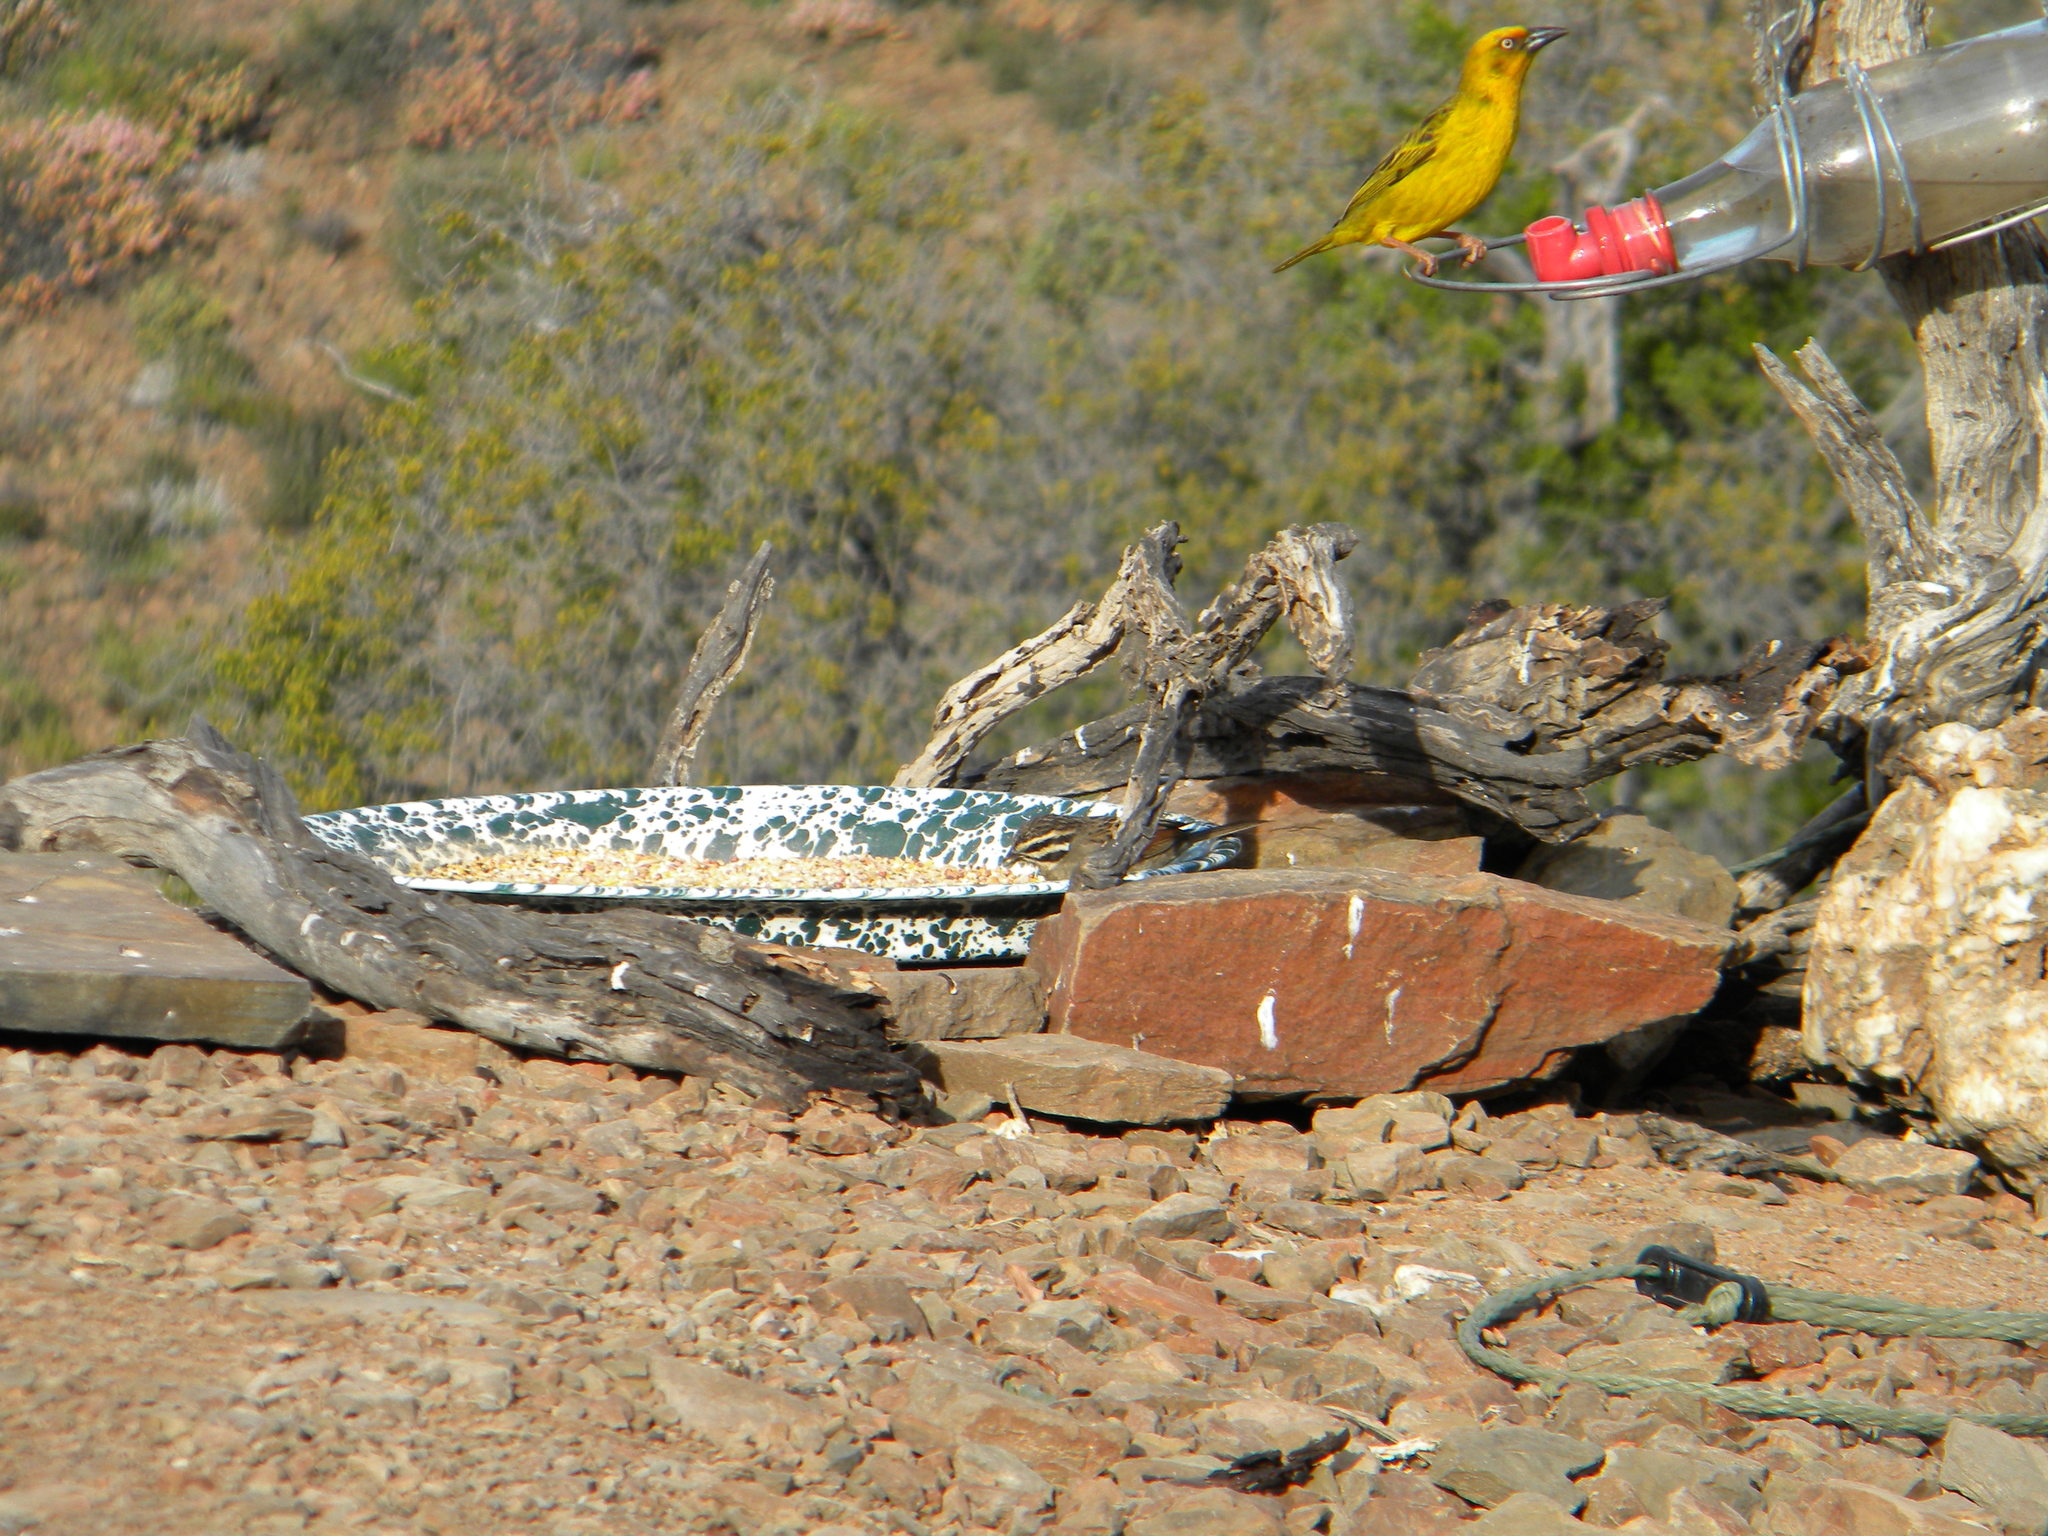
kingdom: Animalia
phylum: Chordata
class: Aves
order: Passeriformes
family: Emberizidae
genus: Emberiza
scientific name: Emberiza capensis
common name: Cape bunting
